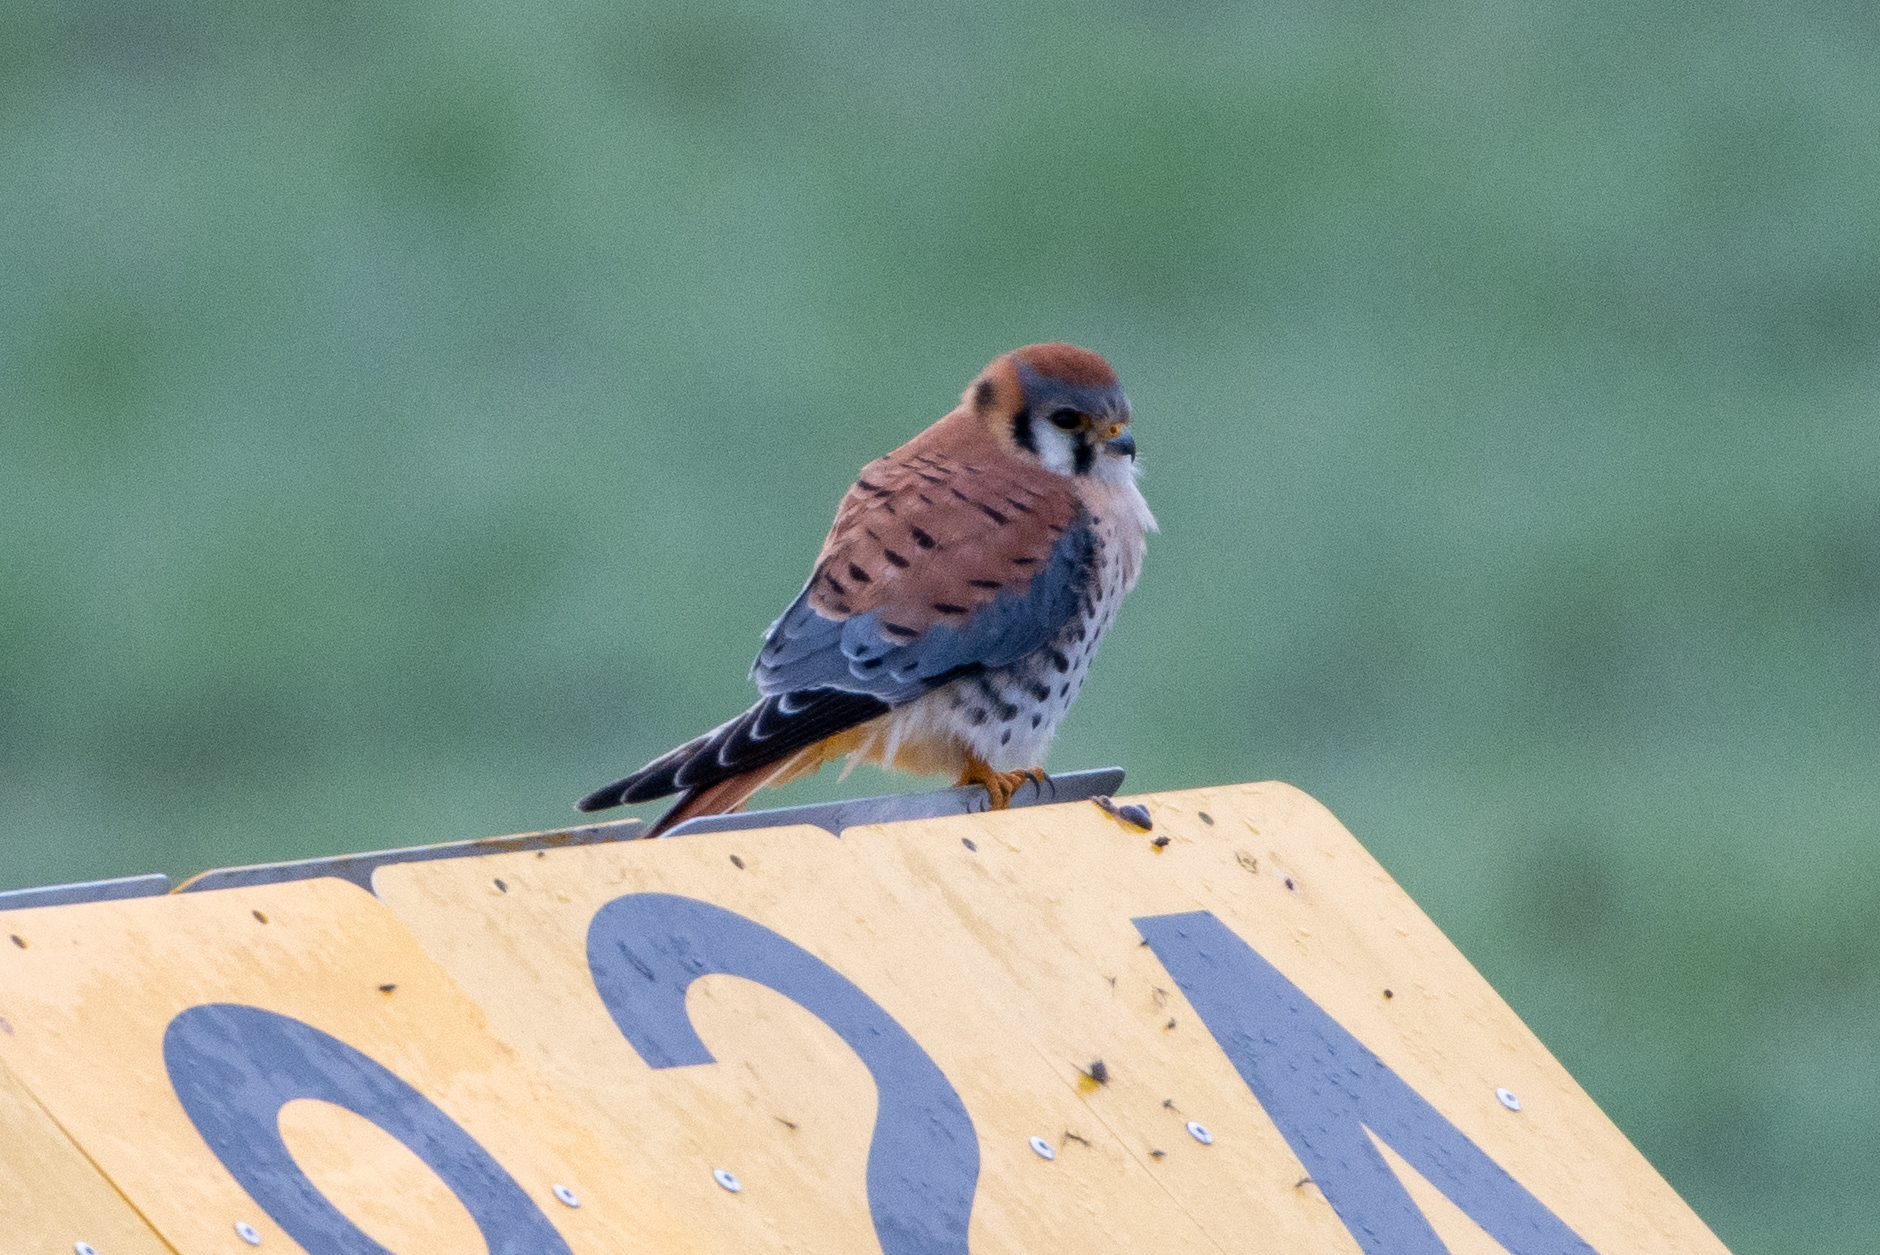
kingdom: Animalia
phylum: Chordata
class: Aves
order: Falconiformes
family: Falconidae
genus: Falco
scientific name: Falco sparverius
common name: American kestrel
